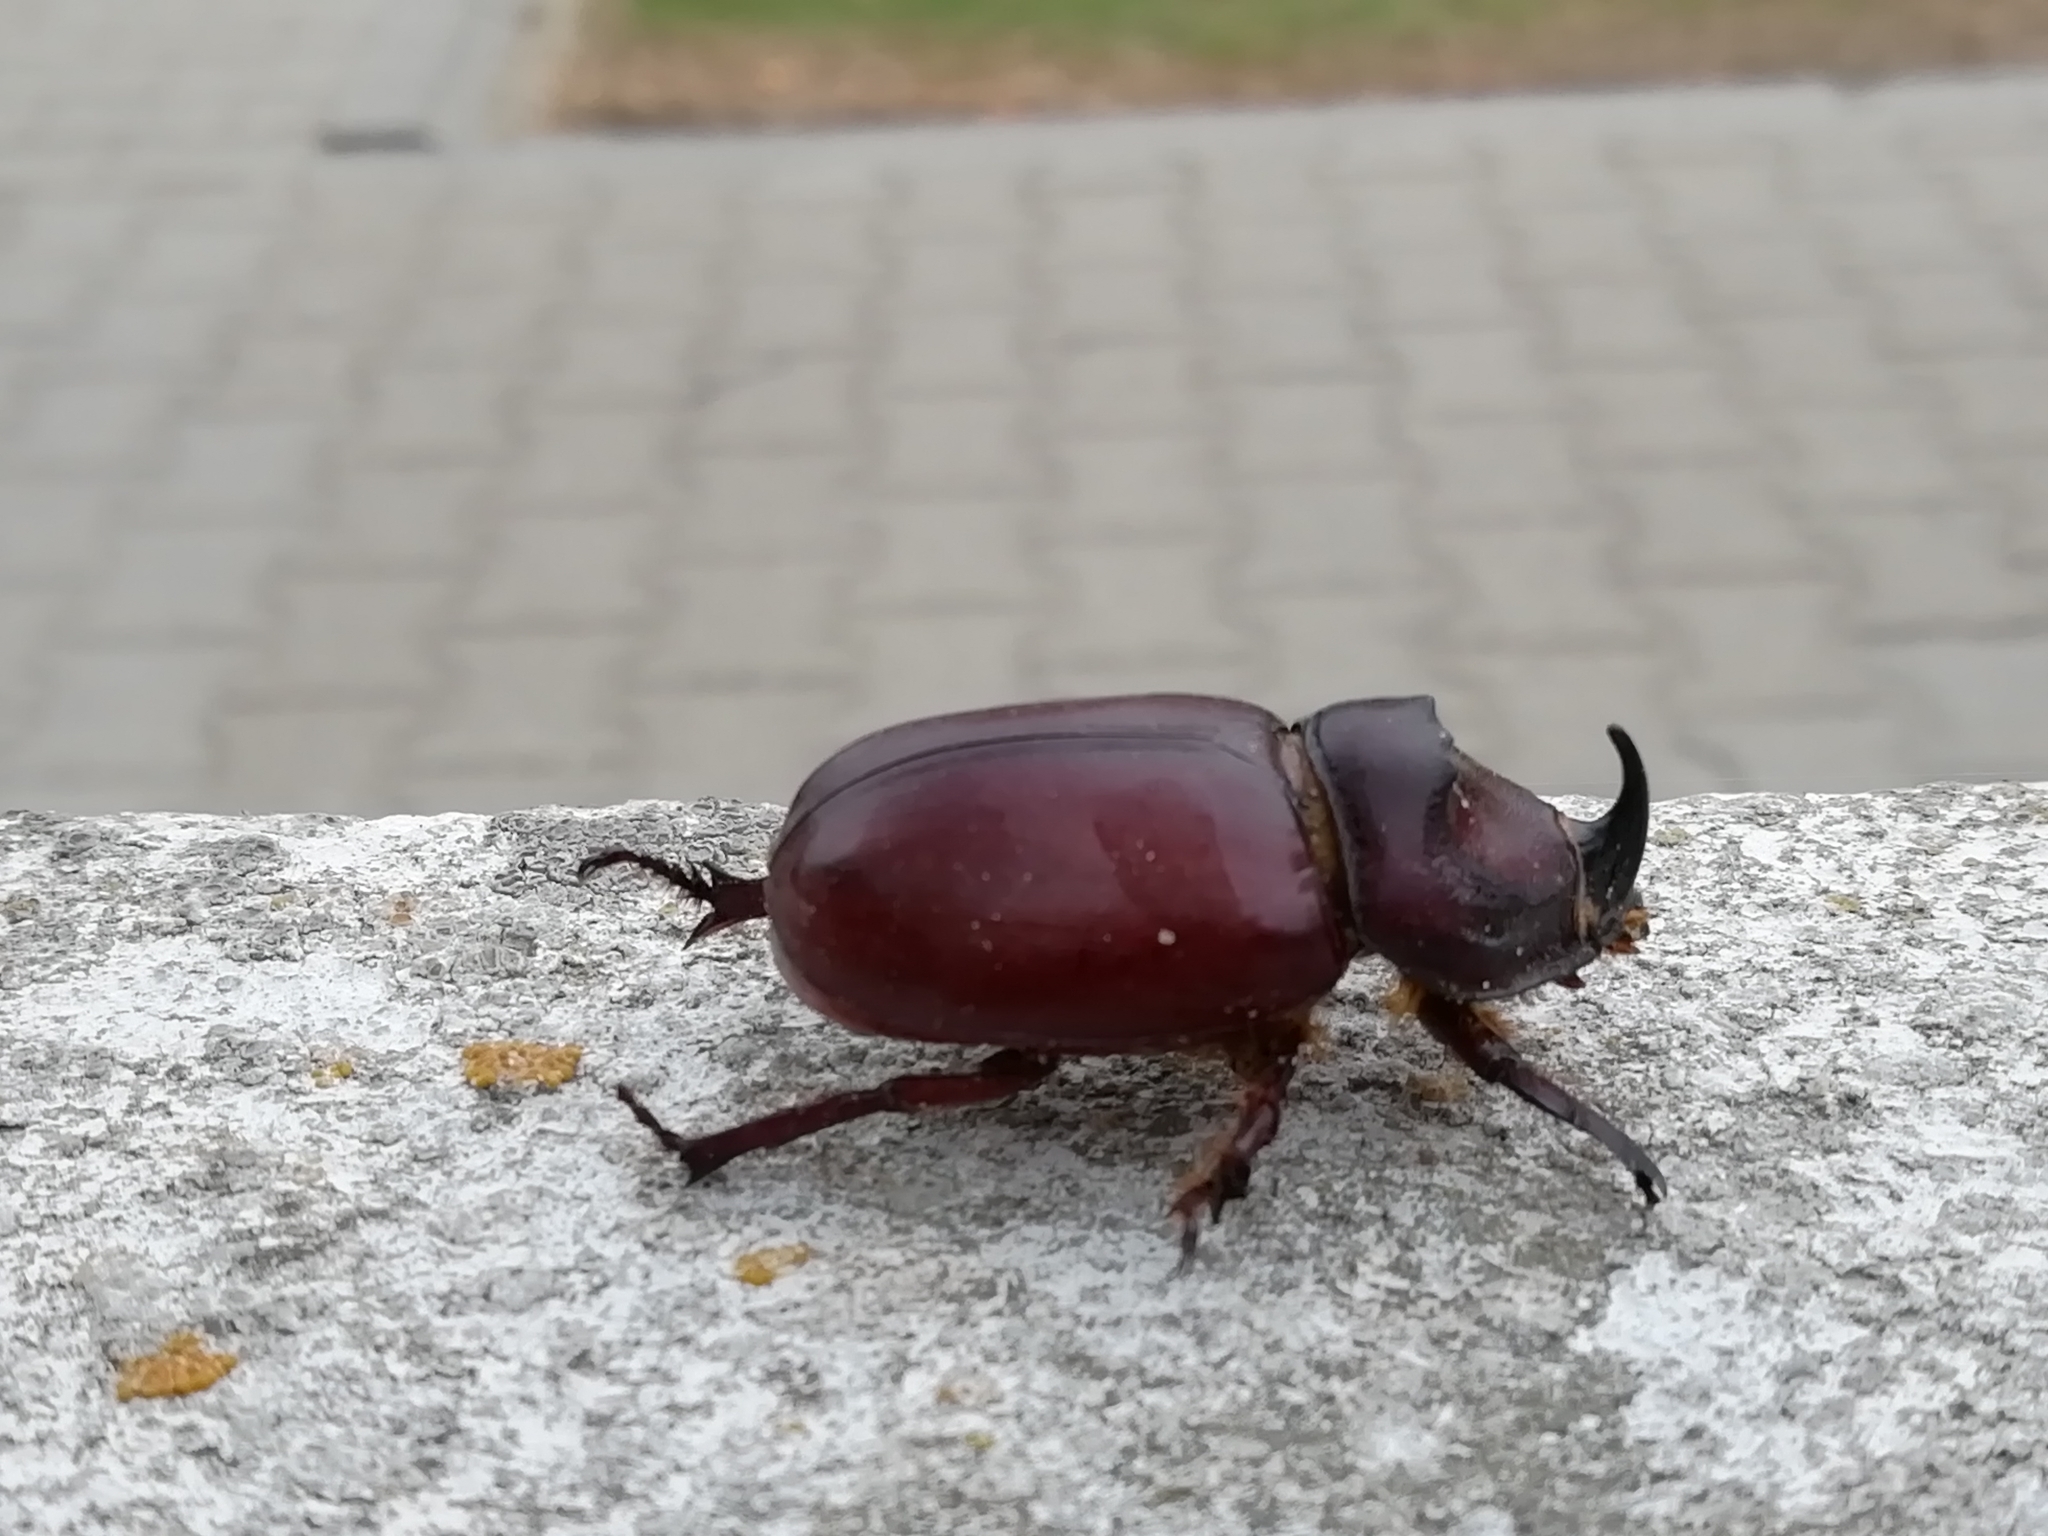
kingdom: Animalia
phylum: Arthropoda
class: Insecta
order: Coleoptera
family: Scarabaeidae
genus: Oryctes
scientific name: Oryctes nasicornis
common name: European rhinoceros beetle
